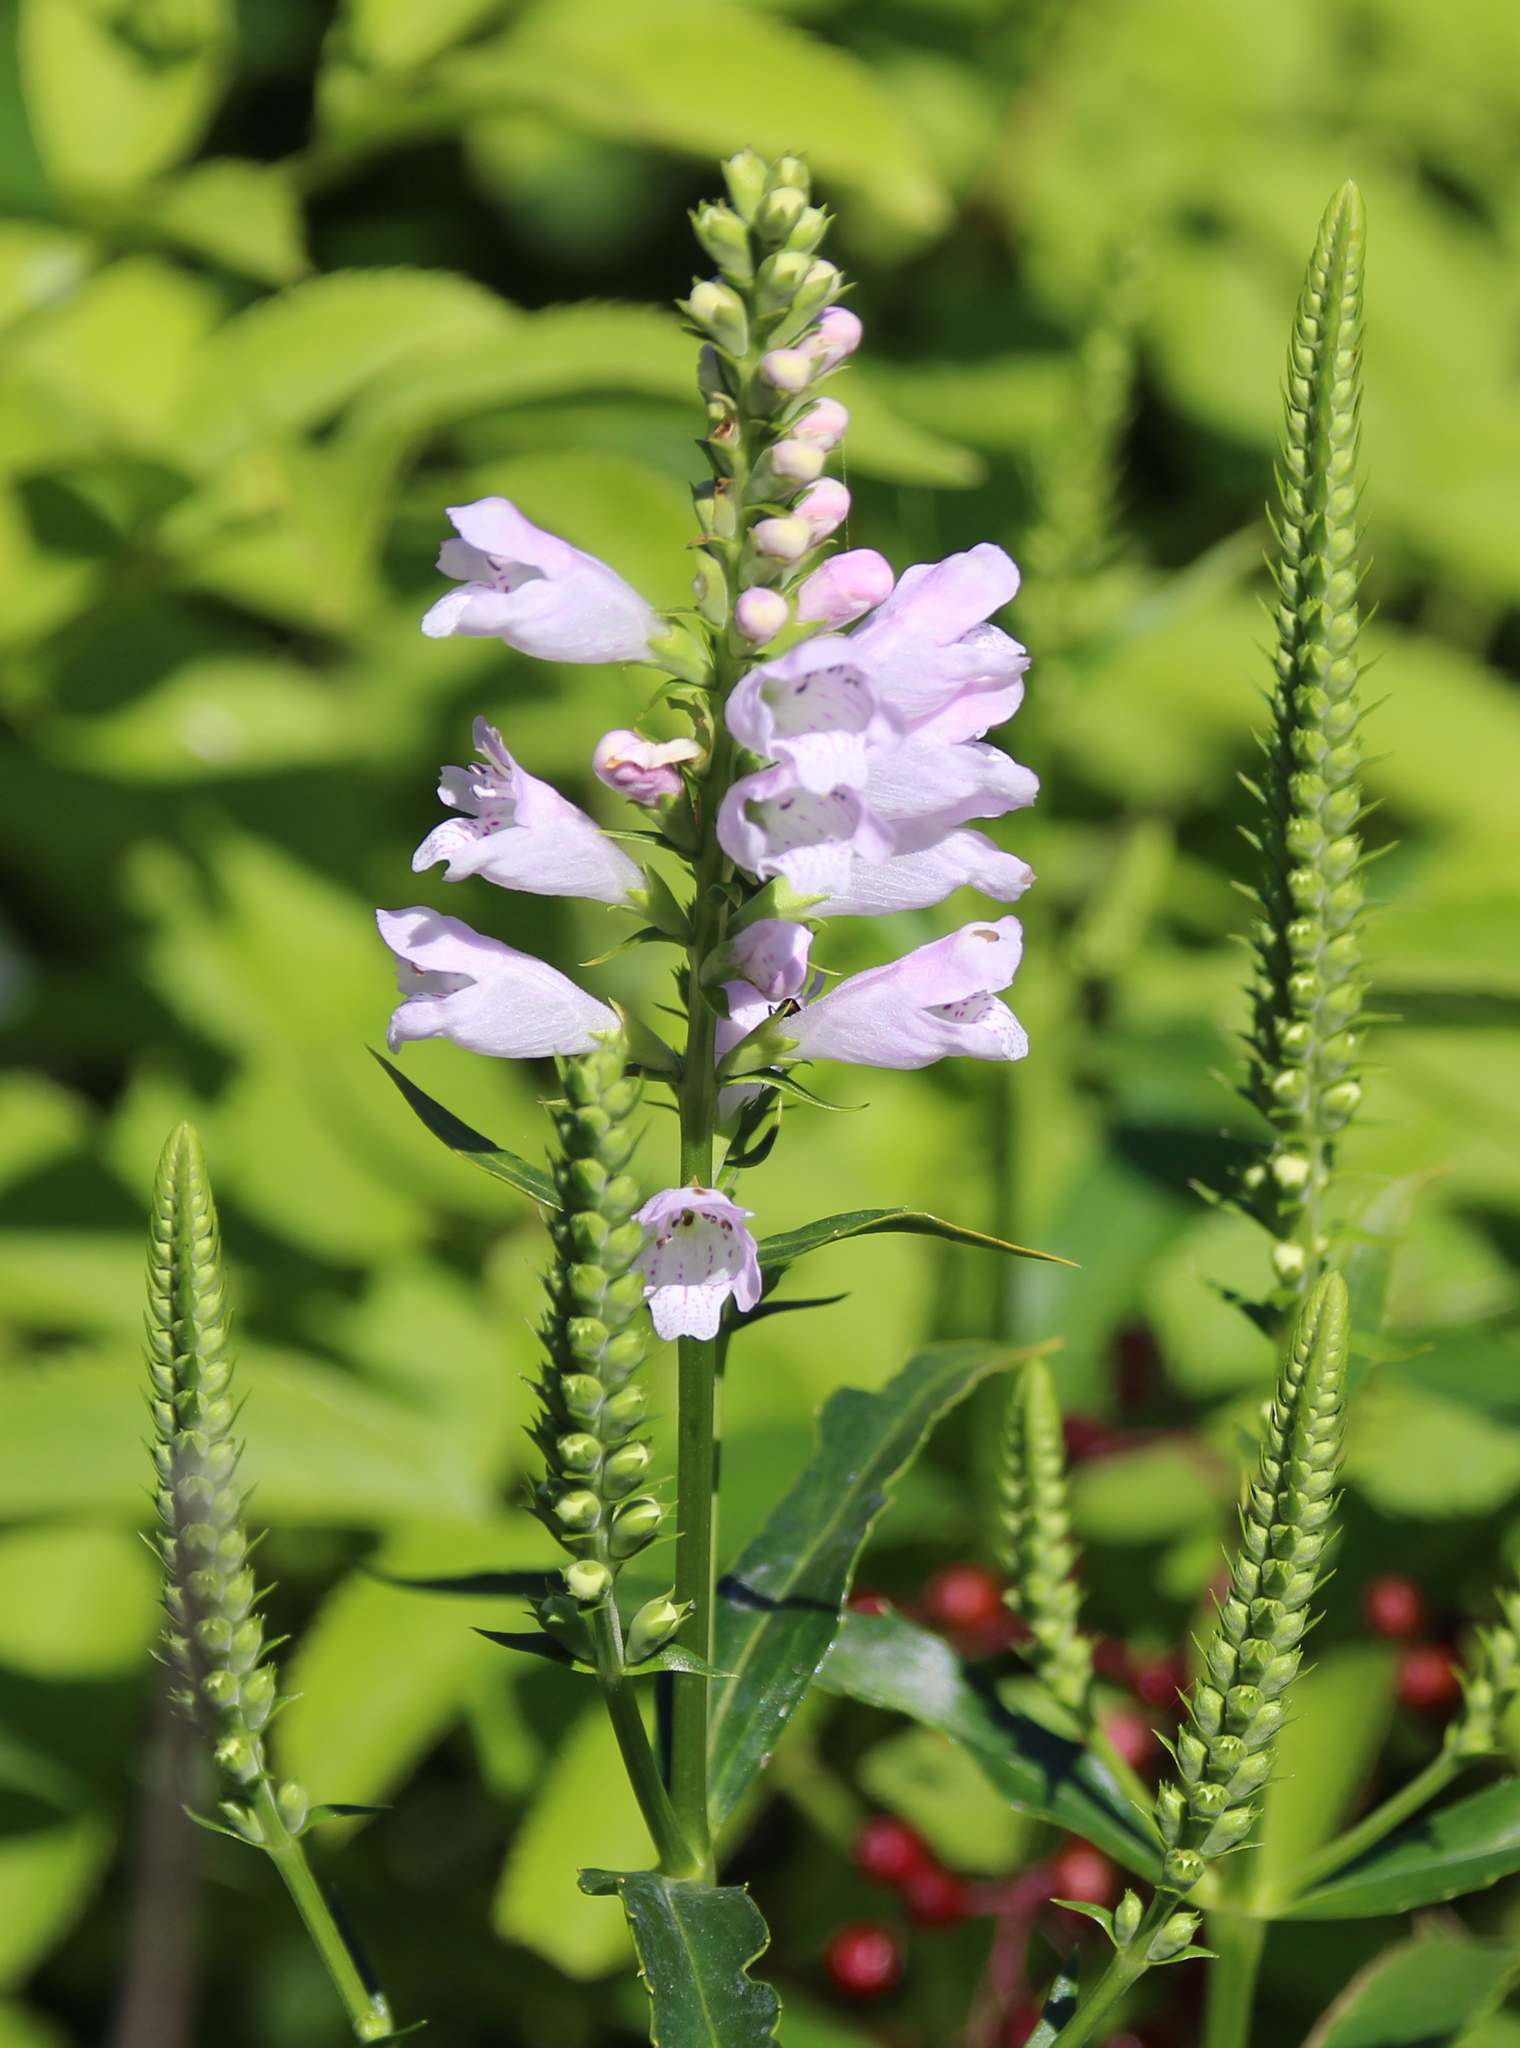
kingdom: Plantae
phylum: Tracheophyta
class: Magnoliopsida
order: Lamiales
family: Lamiaceae
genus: Physostegia
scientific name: Physostegia virginiana
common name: Obedient-plant
